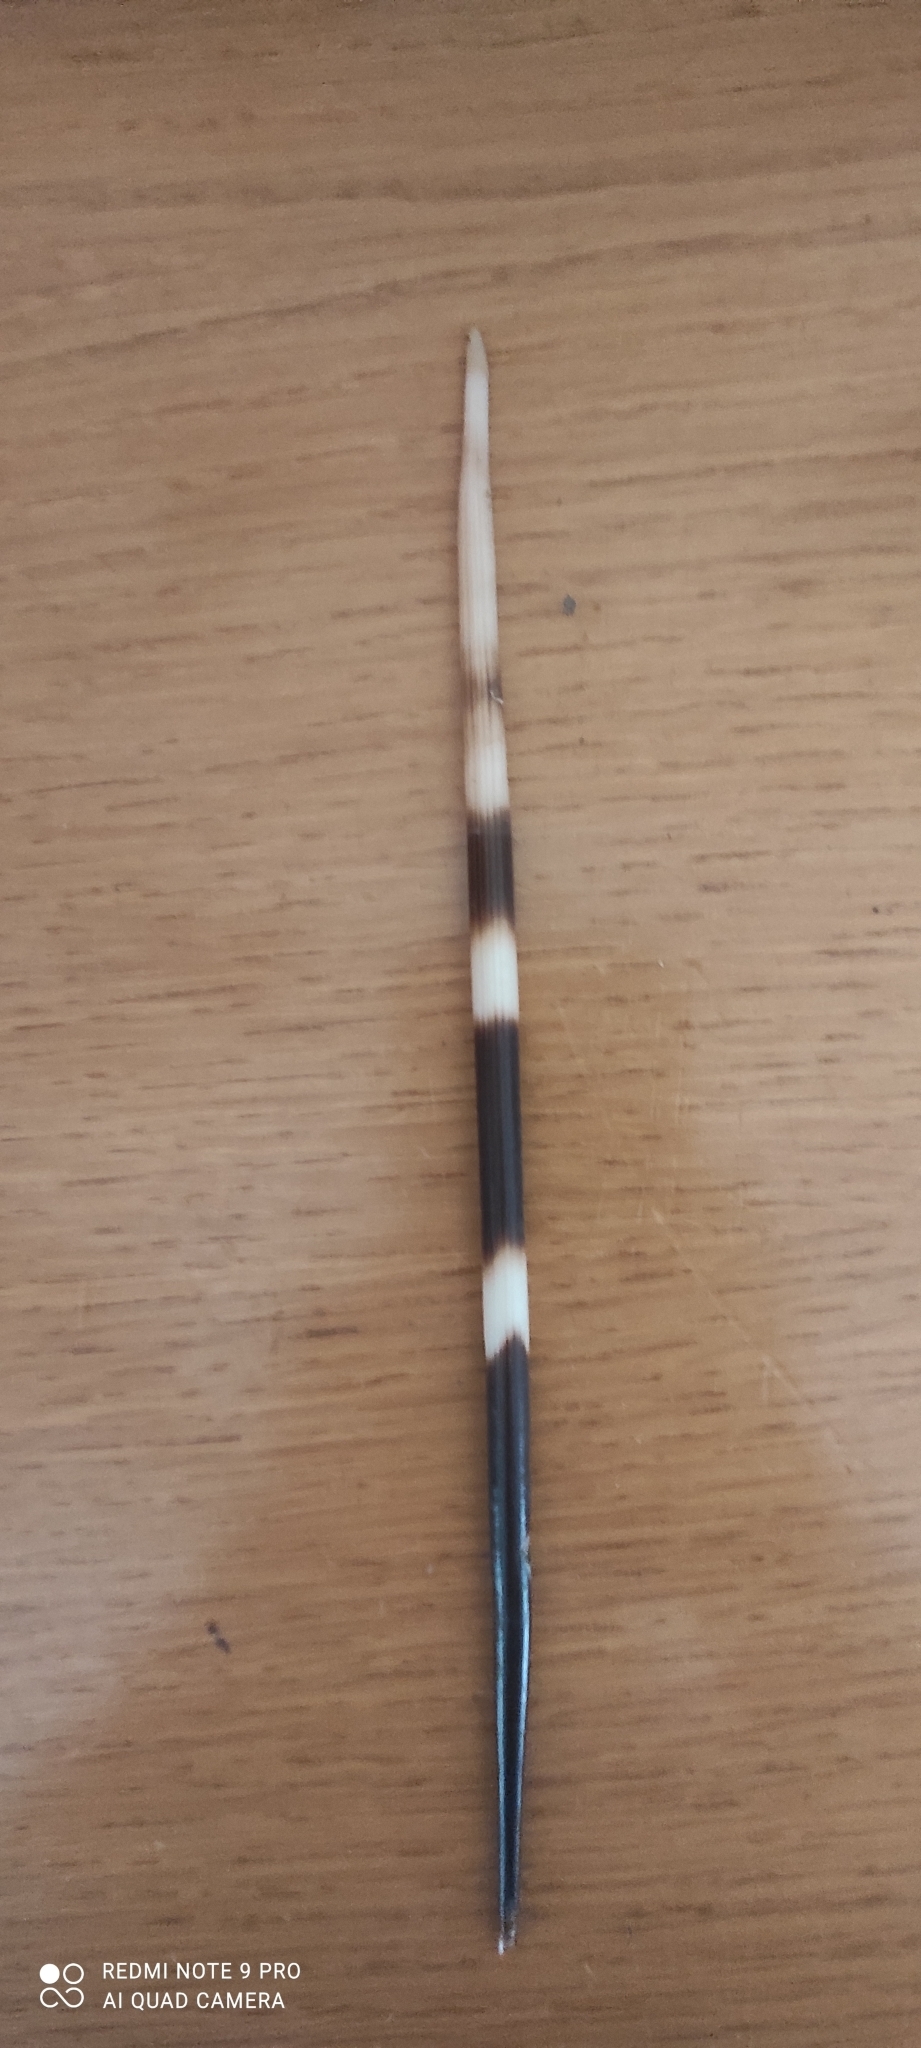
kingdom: Animalia
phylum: Chordata
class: Mammalia
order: Rodentia
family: Hystricidae
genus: Hystrix
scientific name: Hystrix cristata
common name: Crested porcupine
